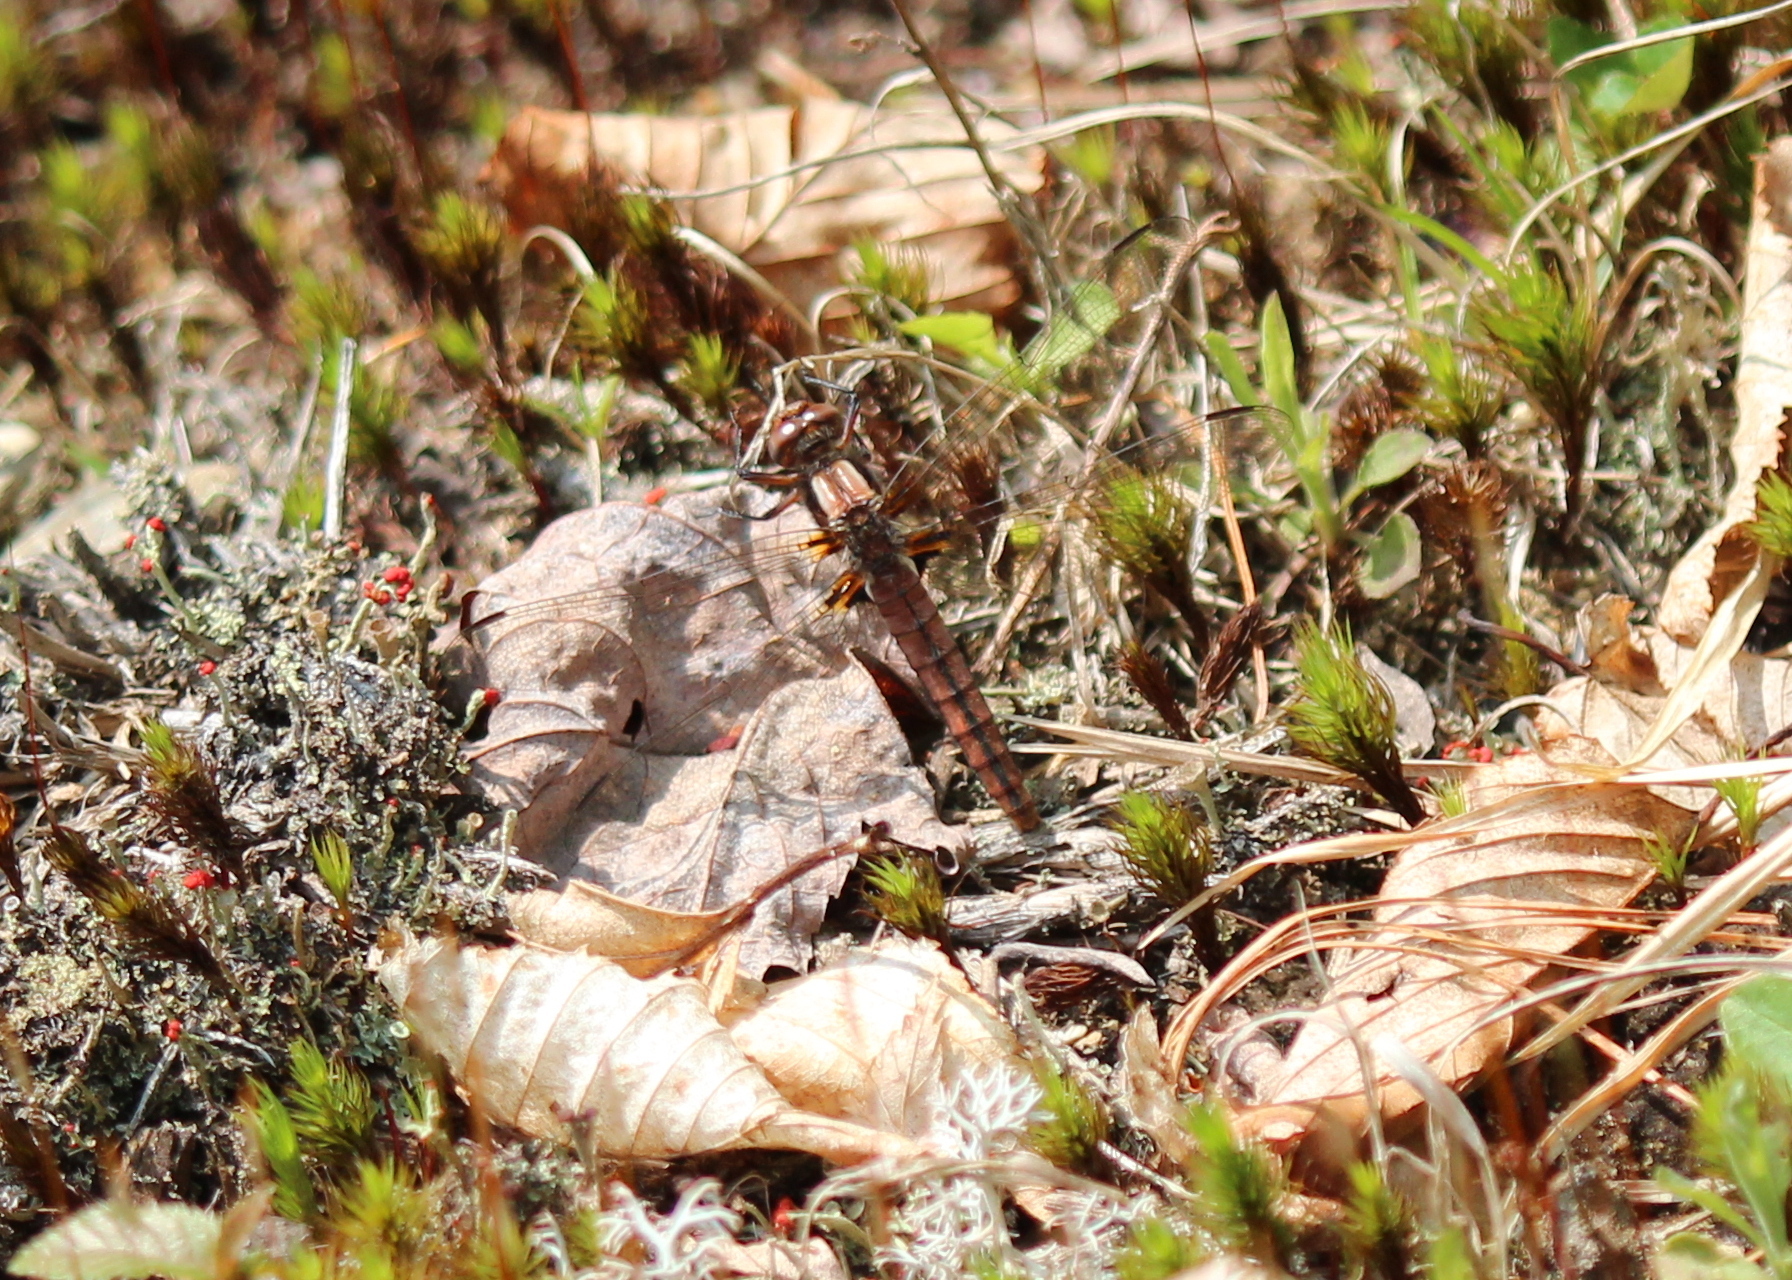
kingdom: Animalia
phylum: Arthropoda
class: Insecta
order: Odonata
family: Libellulidae
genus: Ladona
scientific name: Ladona julia
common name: Chalk-fronted corporal
